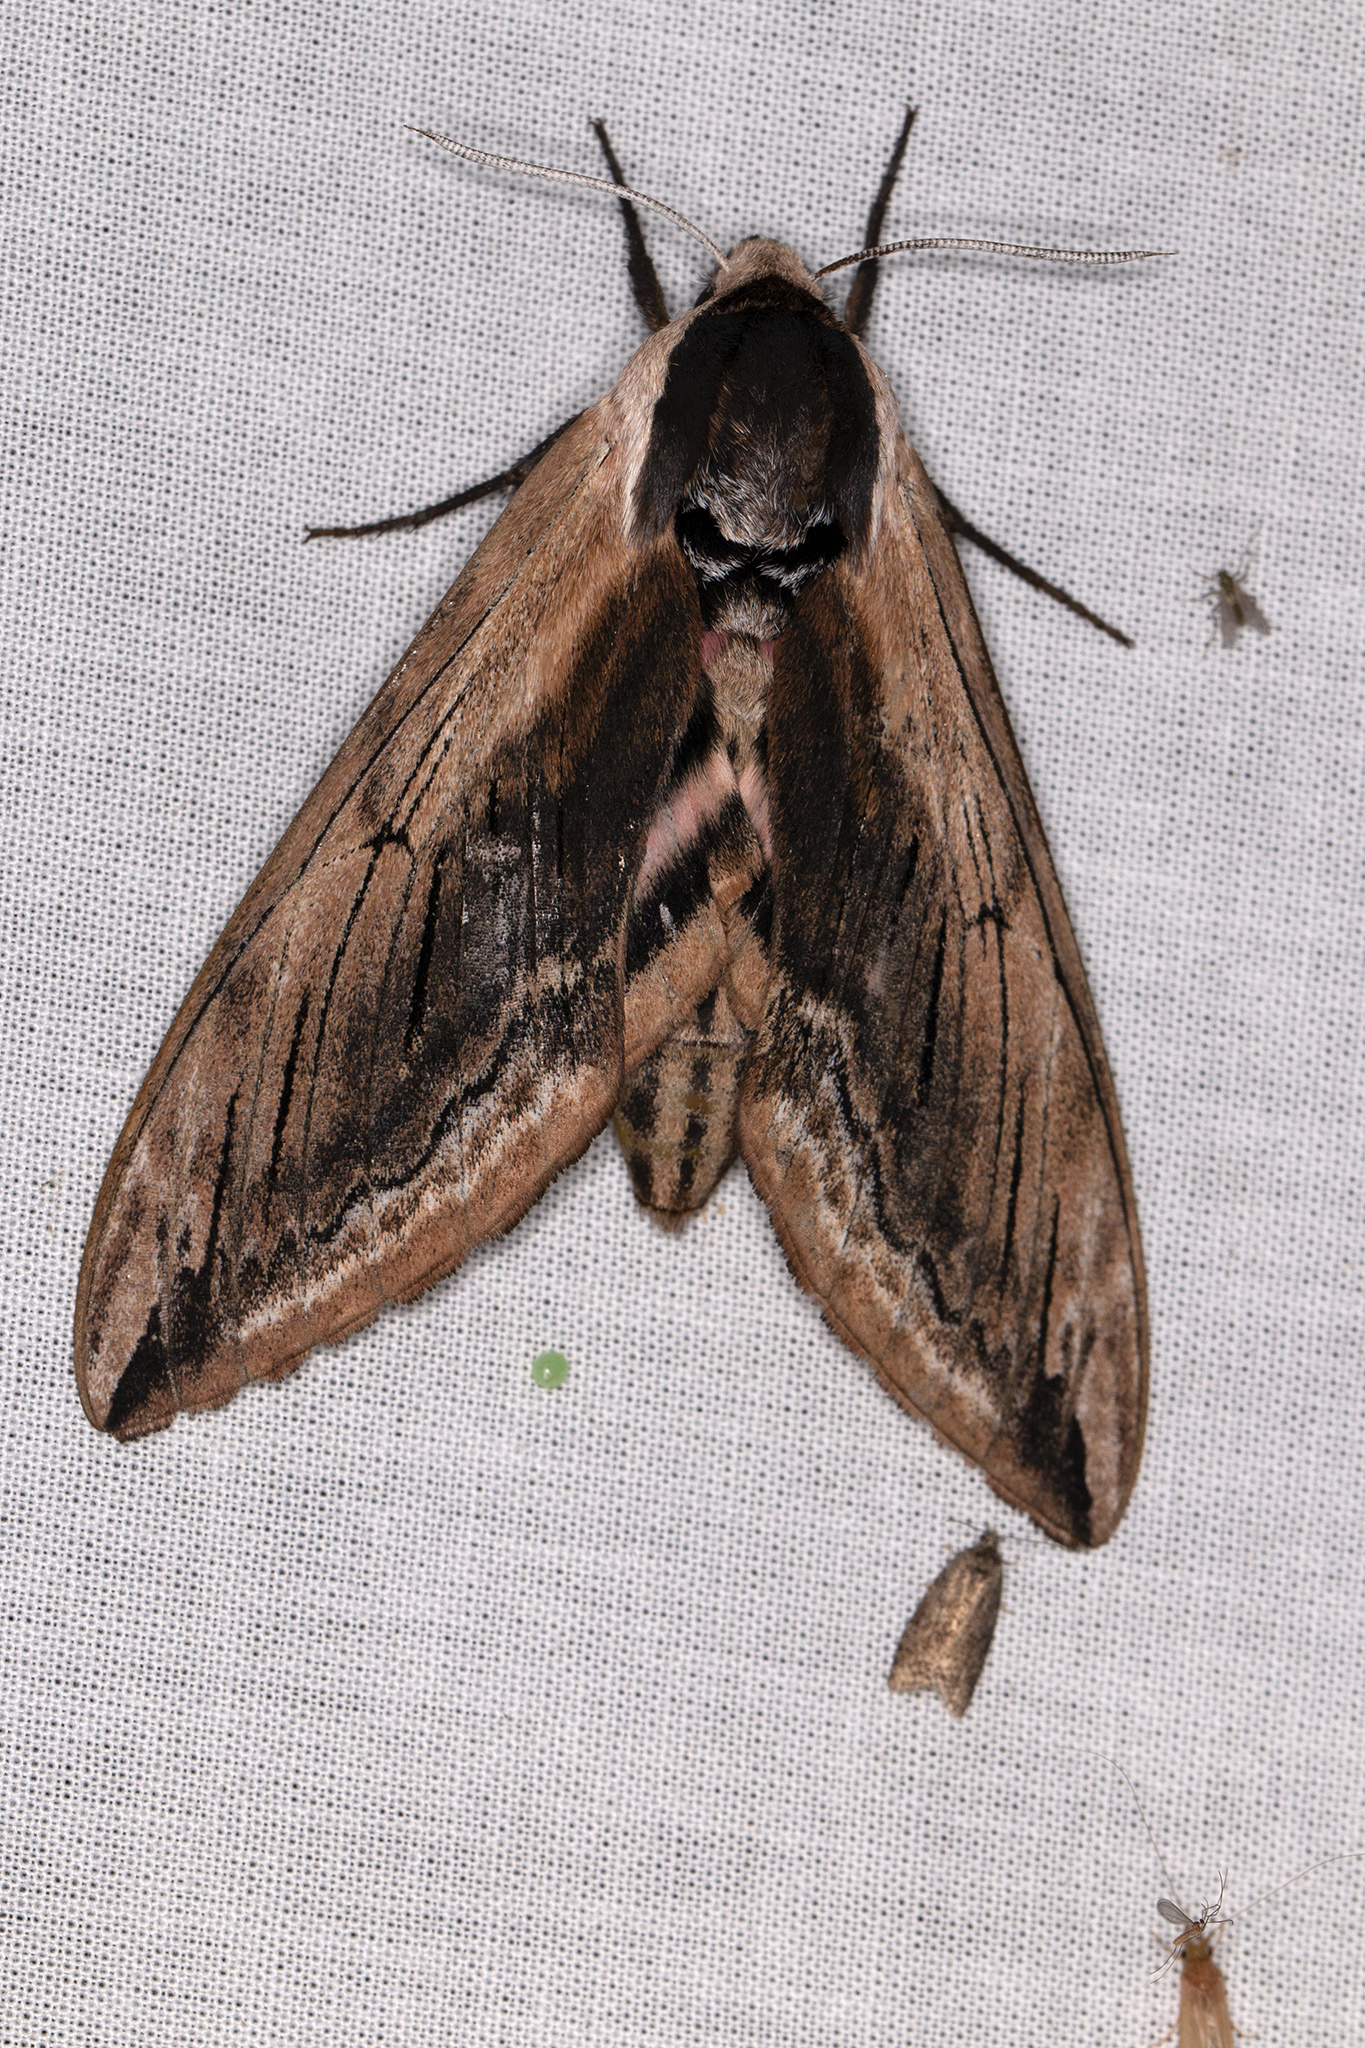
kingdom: Animalia
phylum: Arthropoda
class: Insecta
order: Lepidoptera
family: Sphingidae
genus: Sphinx
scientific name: Sphinx ligustri
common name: Privet hawk-moth
